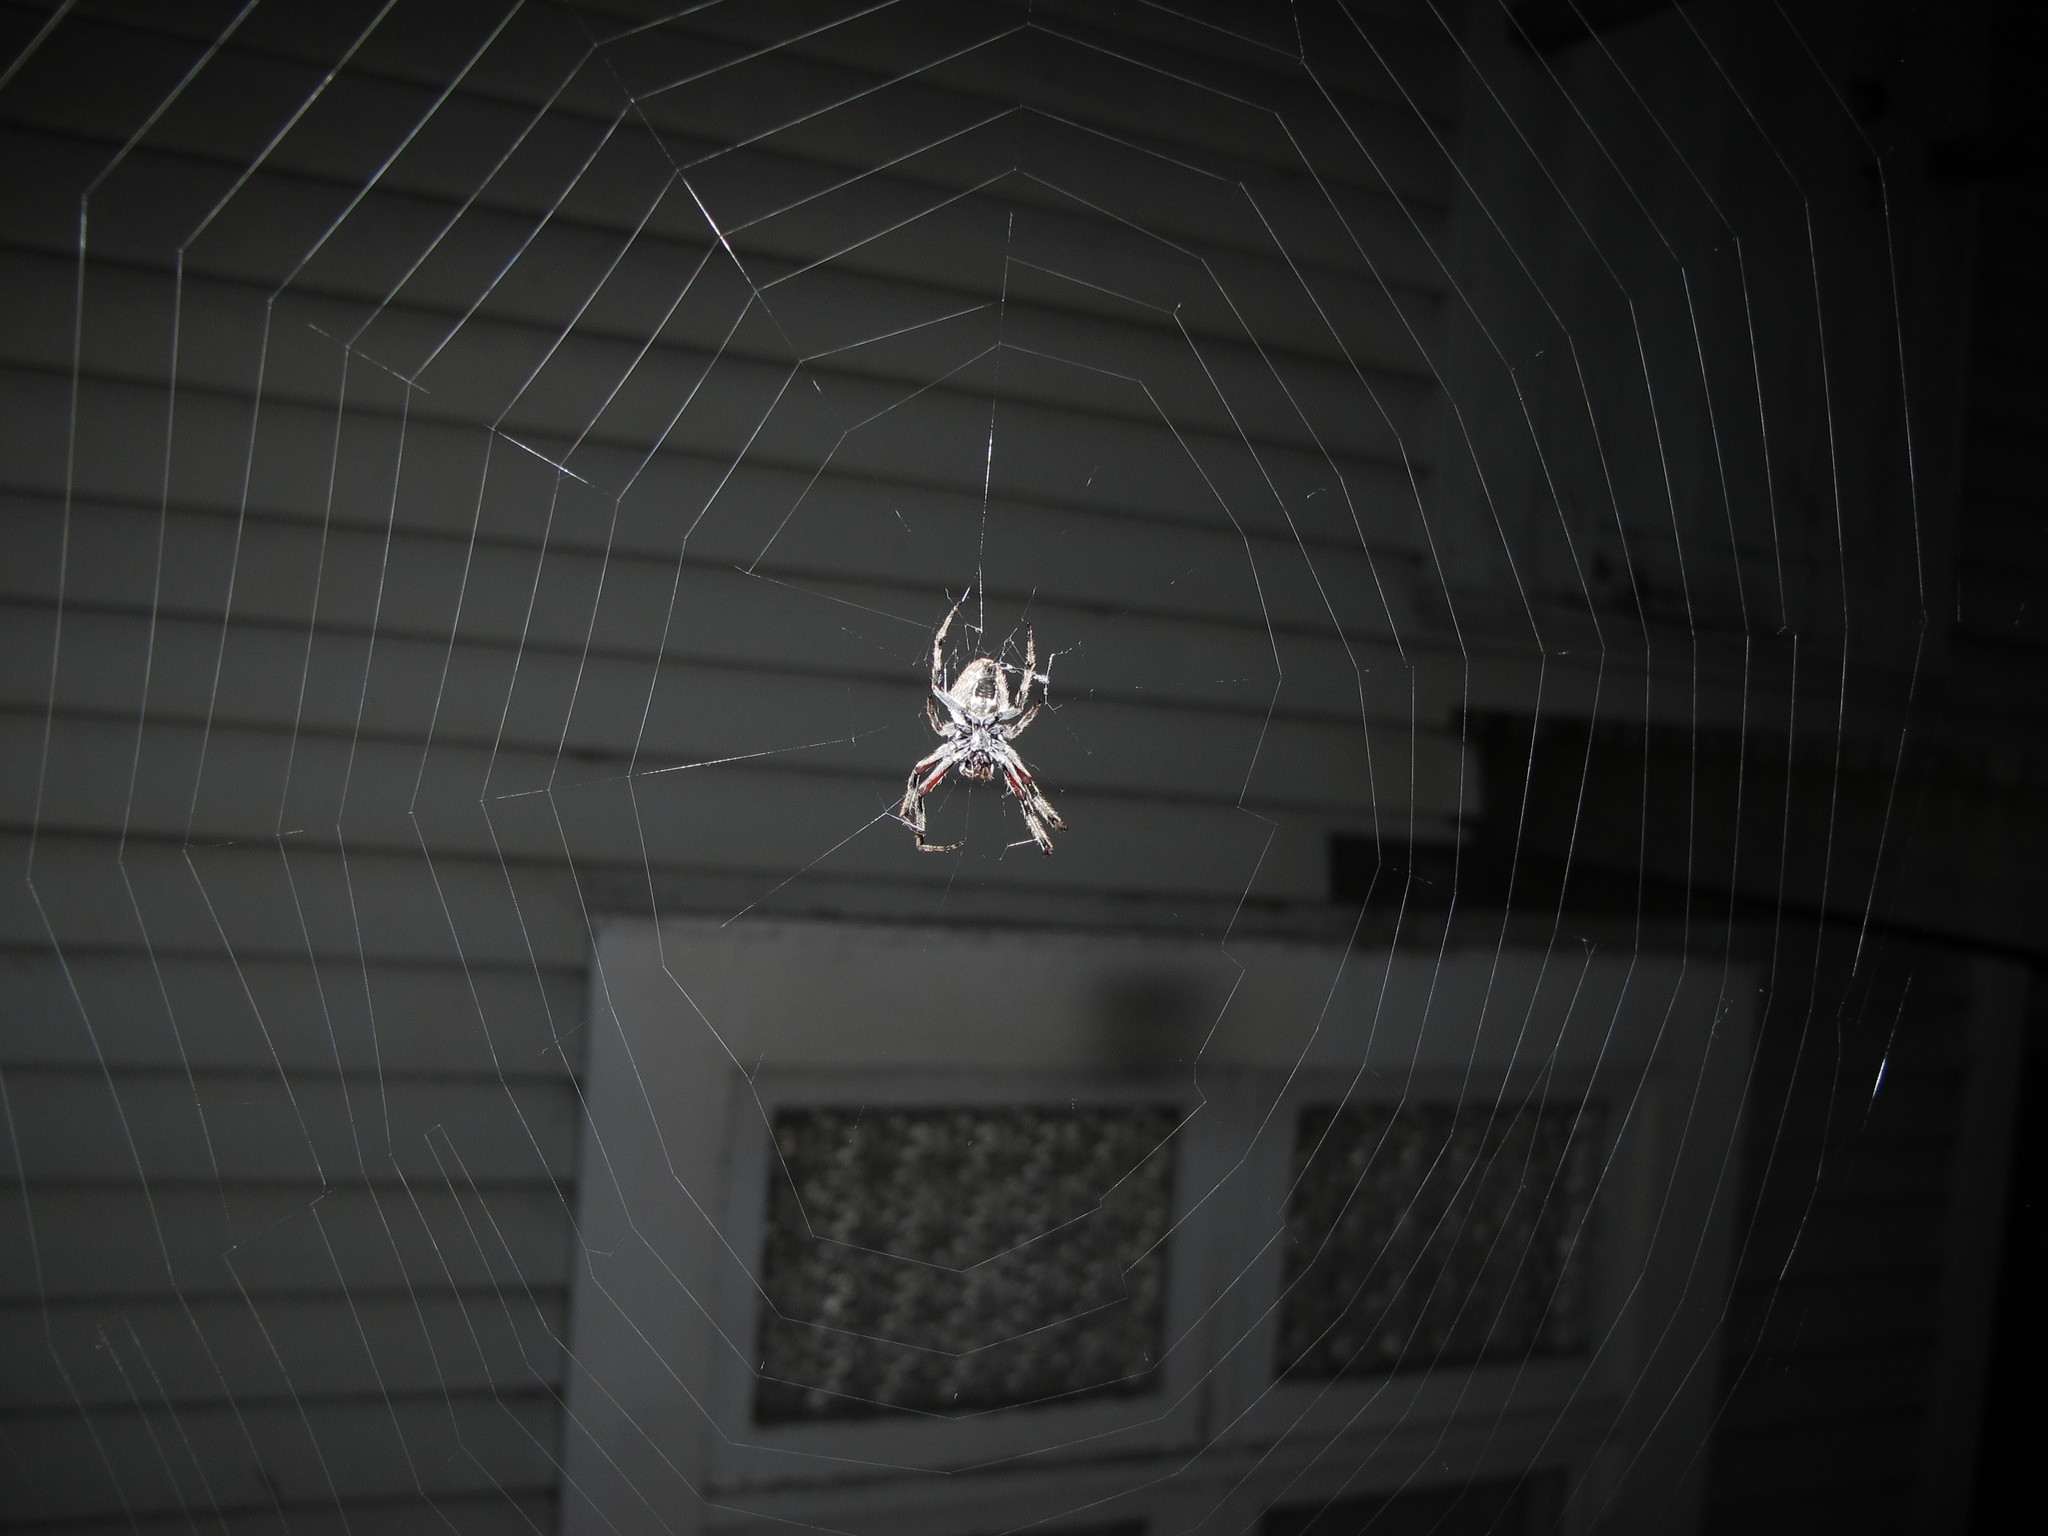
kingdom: Animalia
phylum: Arthropoda
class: Arachnida
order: Araneae
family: Araneidae
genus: Eriophora
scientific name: Eriophora pustulosa
